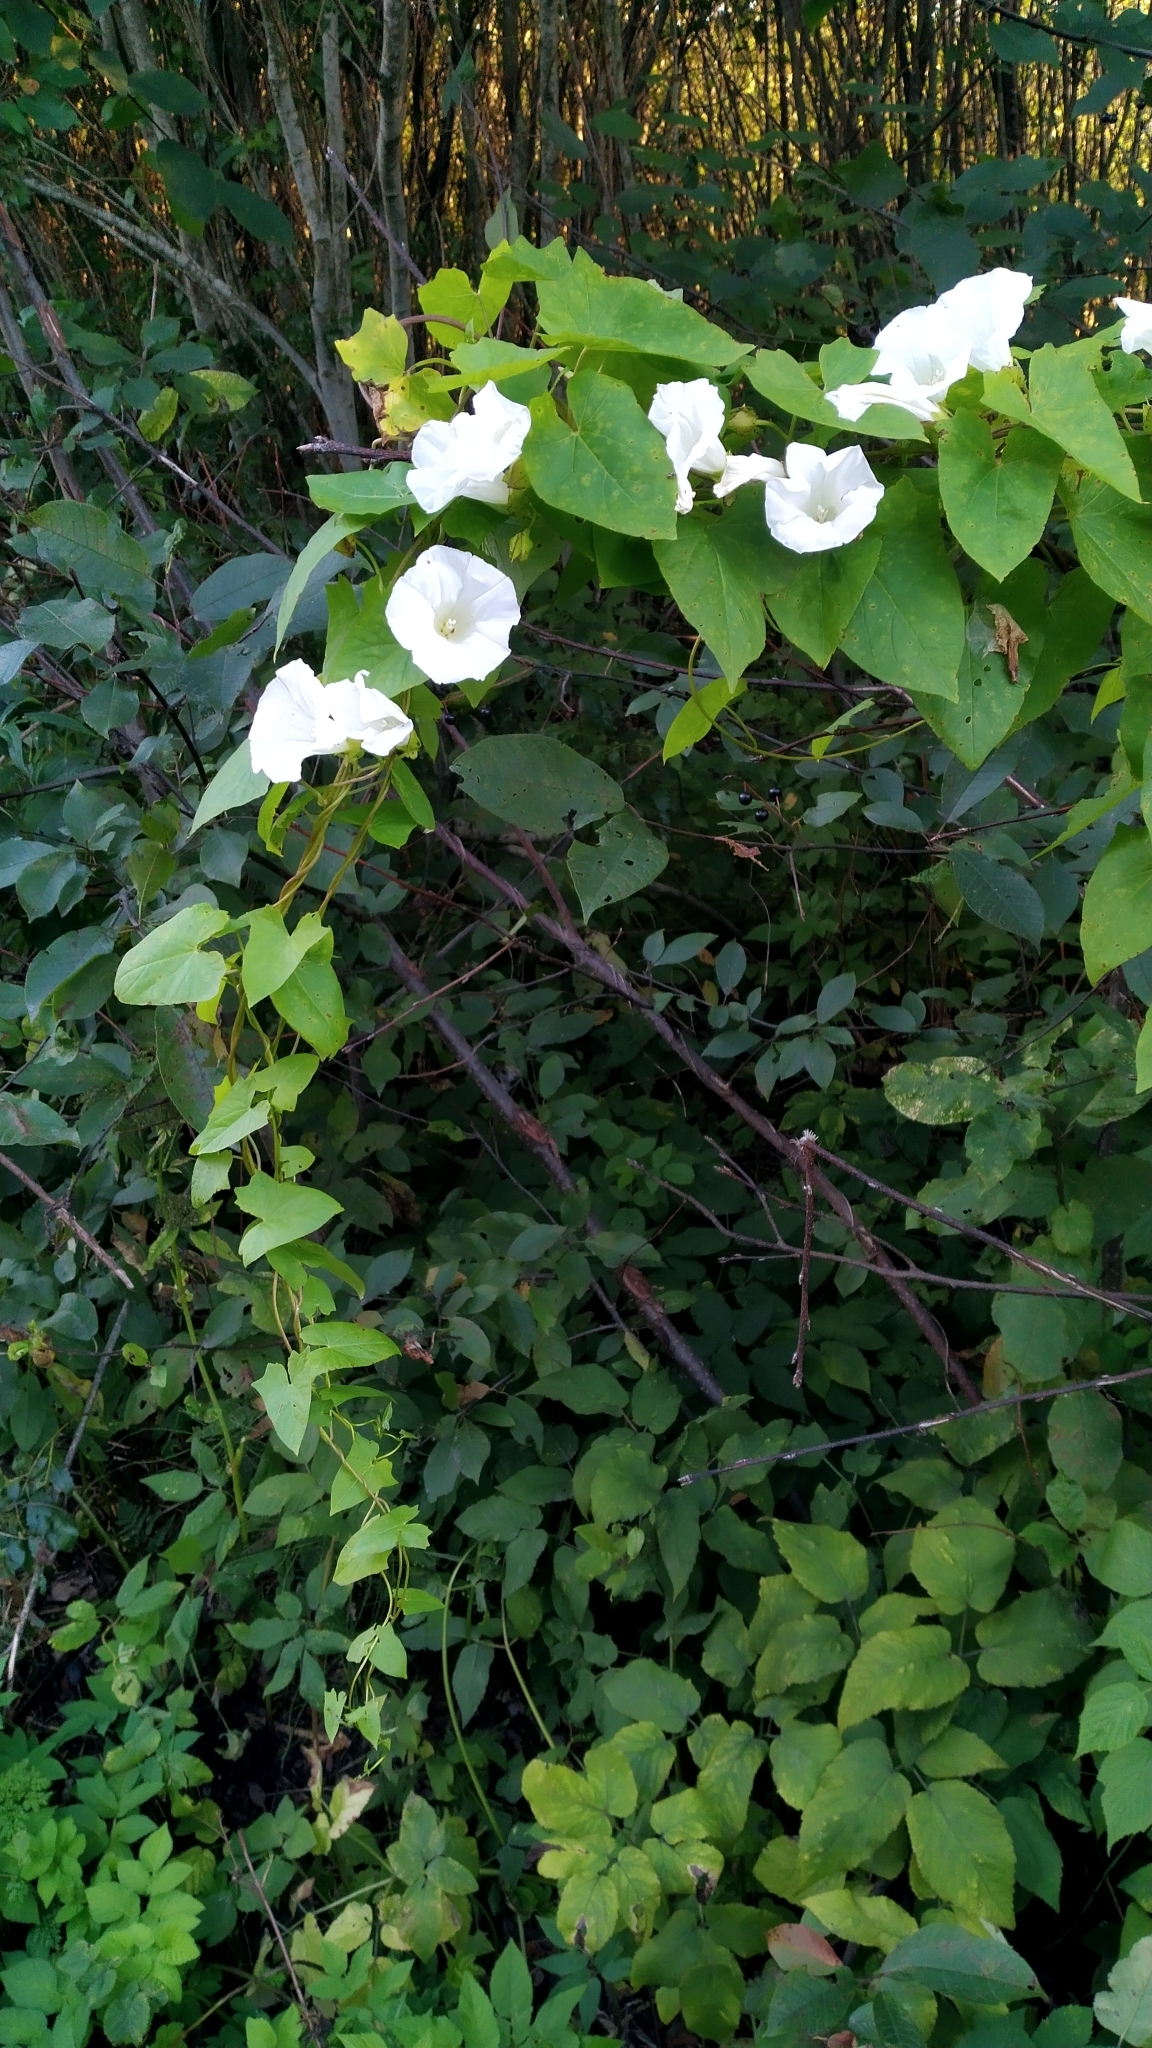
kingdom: Plantae
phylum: Tracheophyta
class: Magnoliopsida
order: Solanales
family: Convolvulaceae
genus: Calystegia
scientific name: Calystegia sepium
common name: Hedge bindweed
